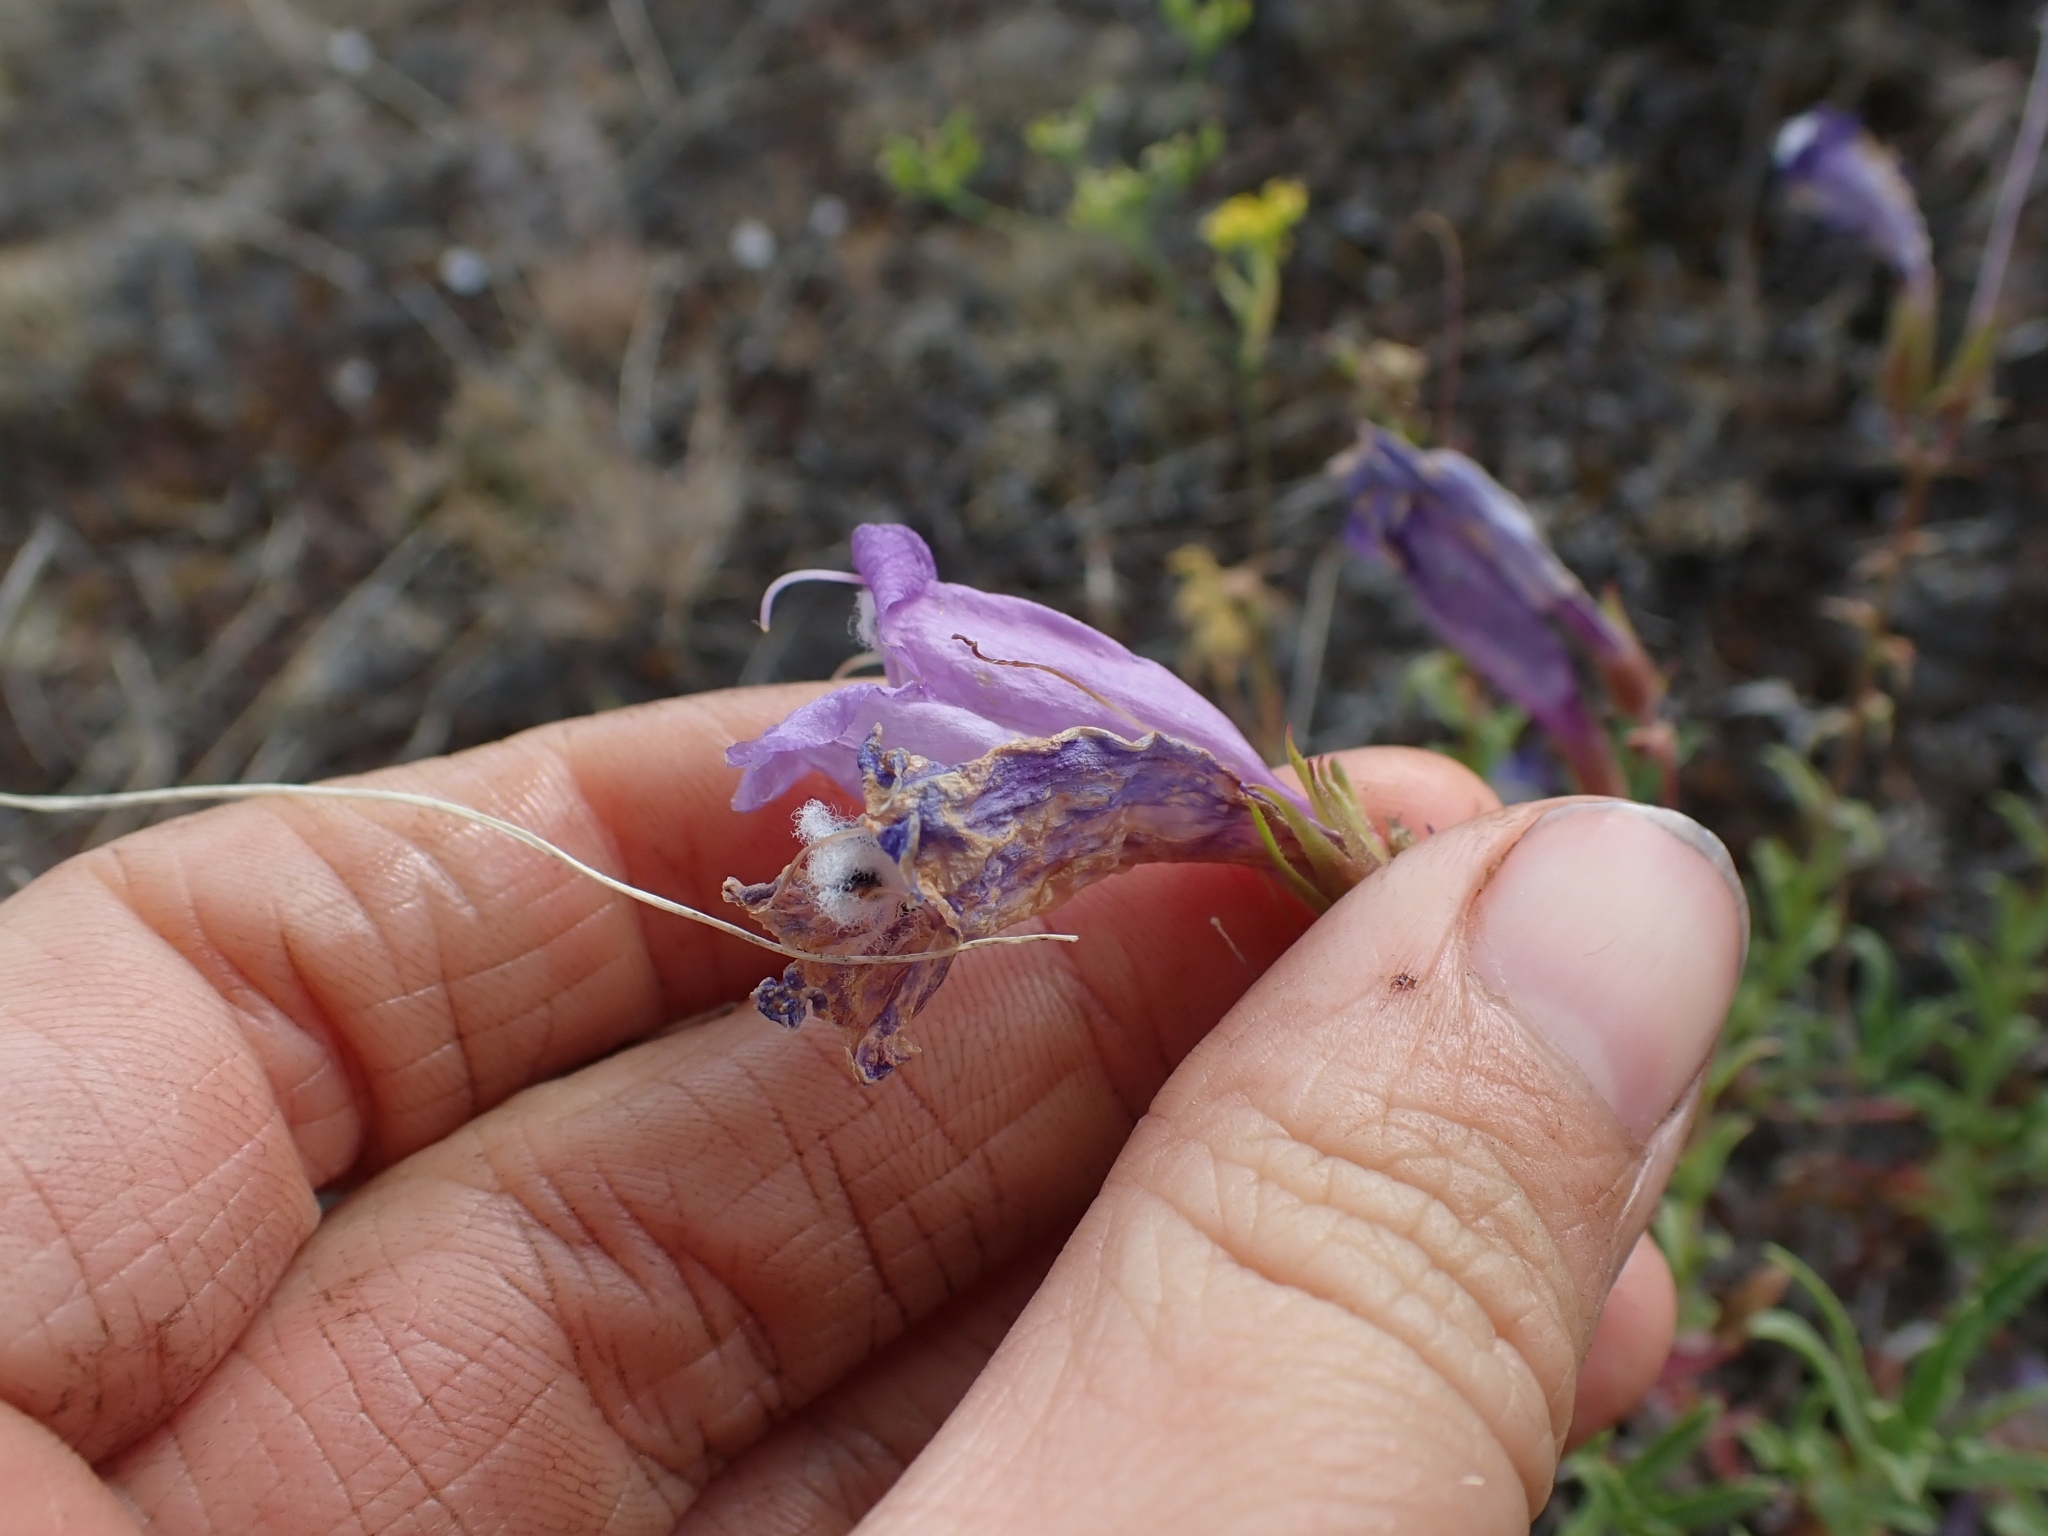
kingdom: Plantae
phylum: Tracheophyta
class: Magnoliopsida
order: Lamiales
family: Plantaginaceae
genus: Penstemon
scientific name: Penstemon fruticosus
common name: Bush penstemon
